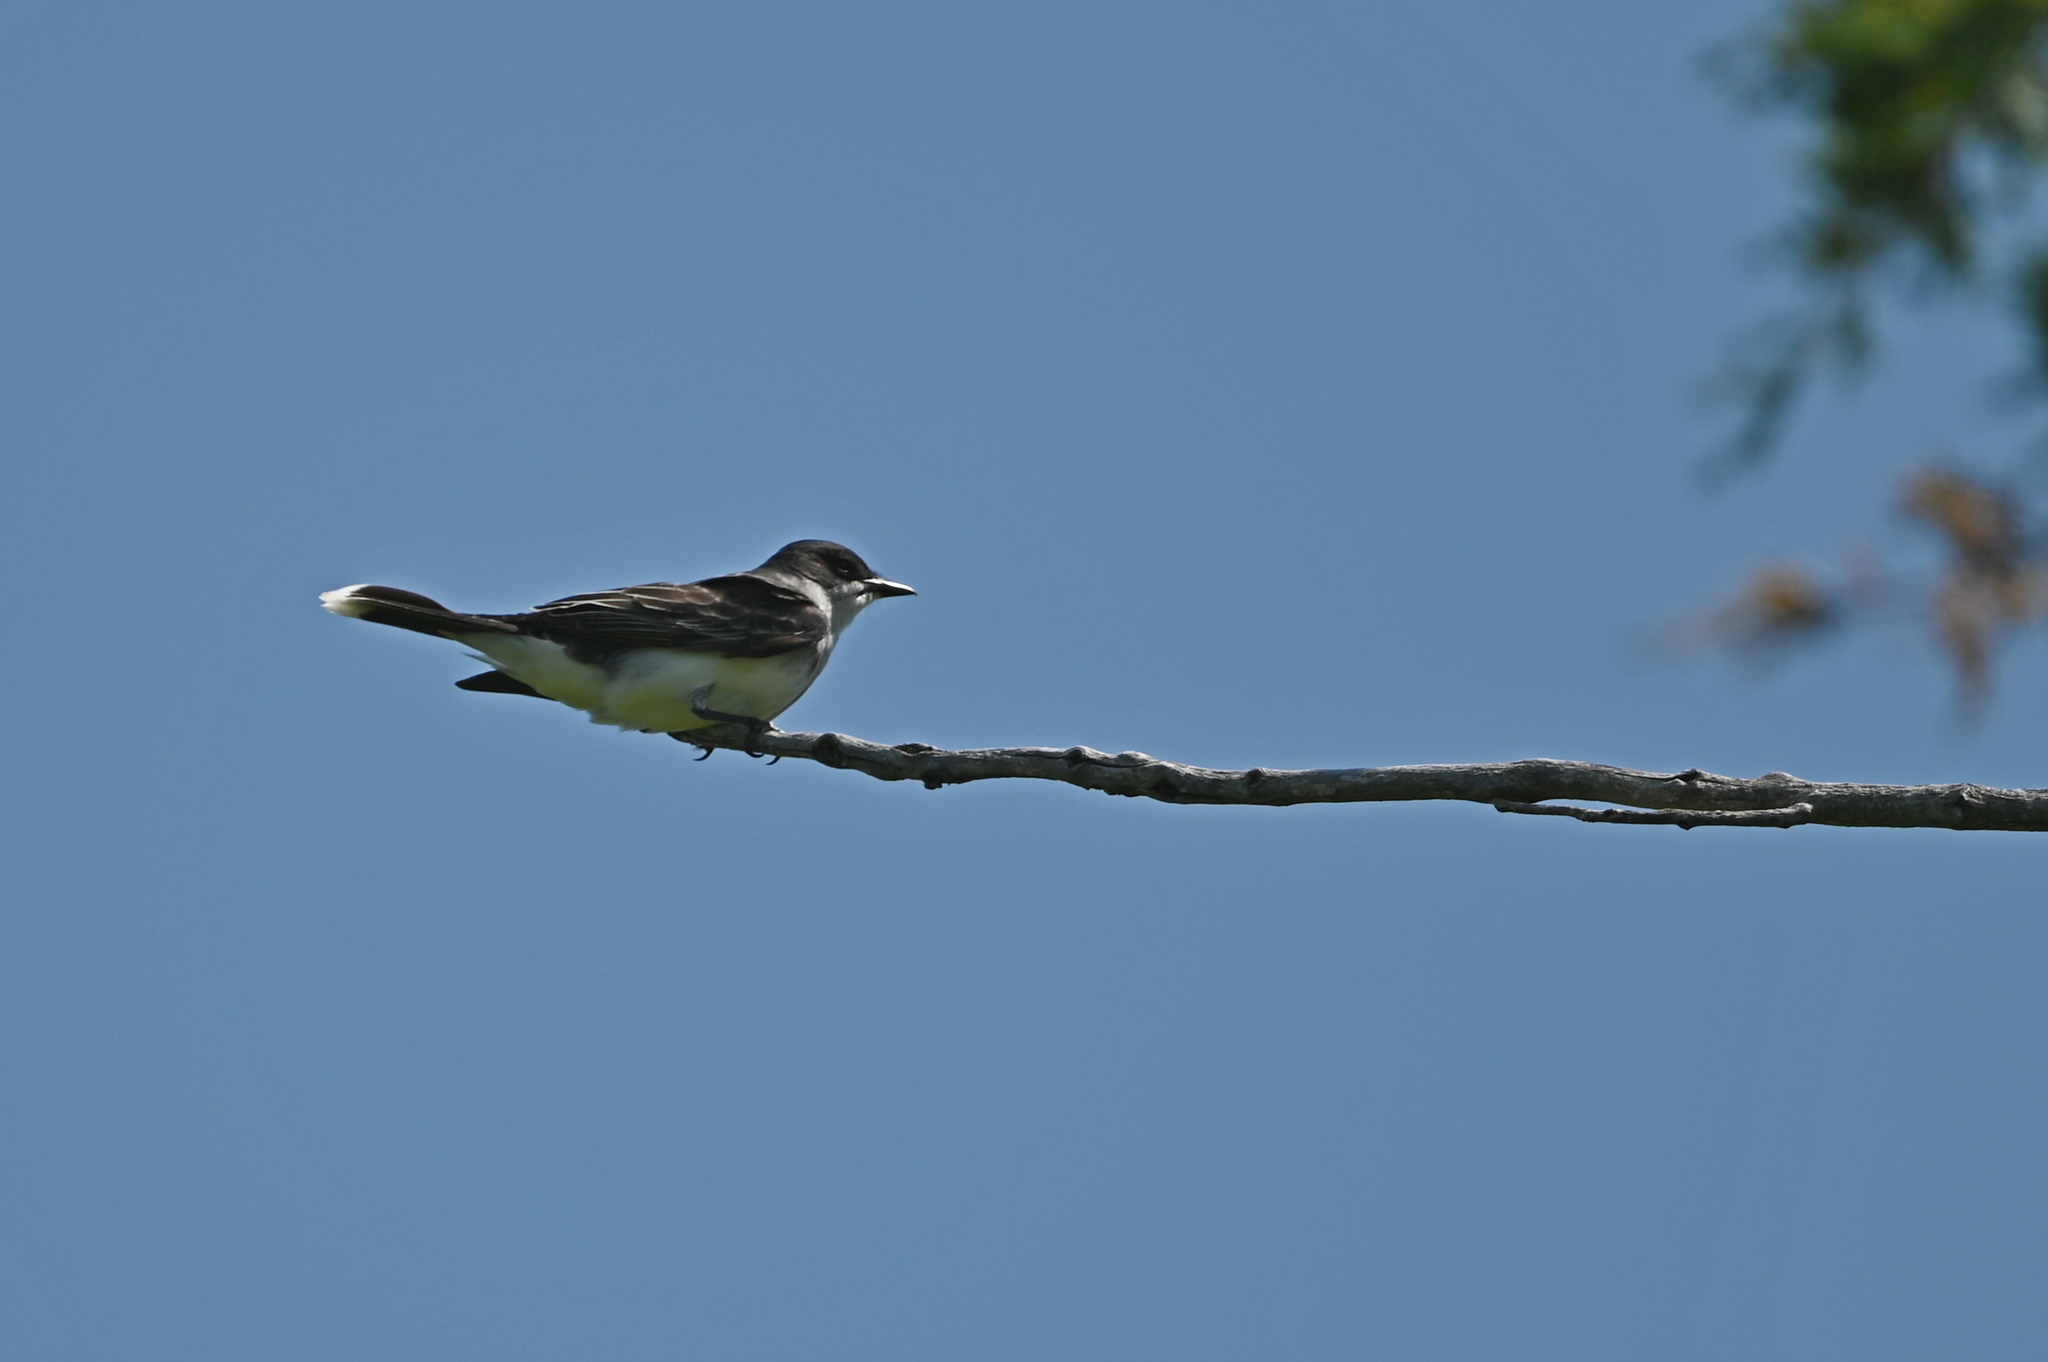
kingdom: Animalia
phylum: Chordata
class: Aves
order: Passeriformes
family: Tyrannidae
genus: Tyrannus
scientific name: Tyrannus tyrannus
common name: Eastern kingbird
